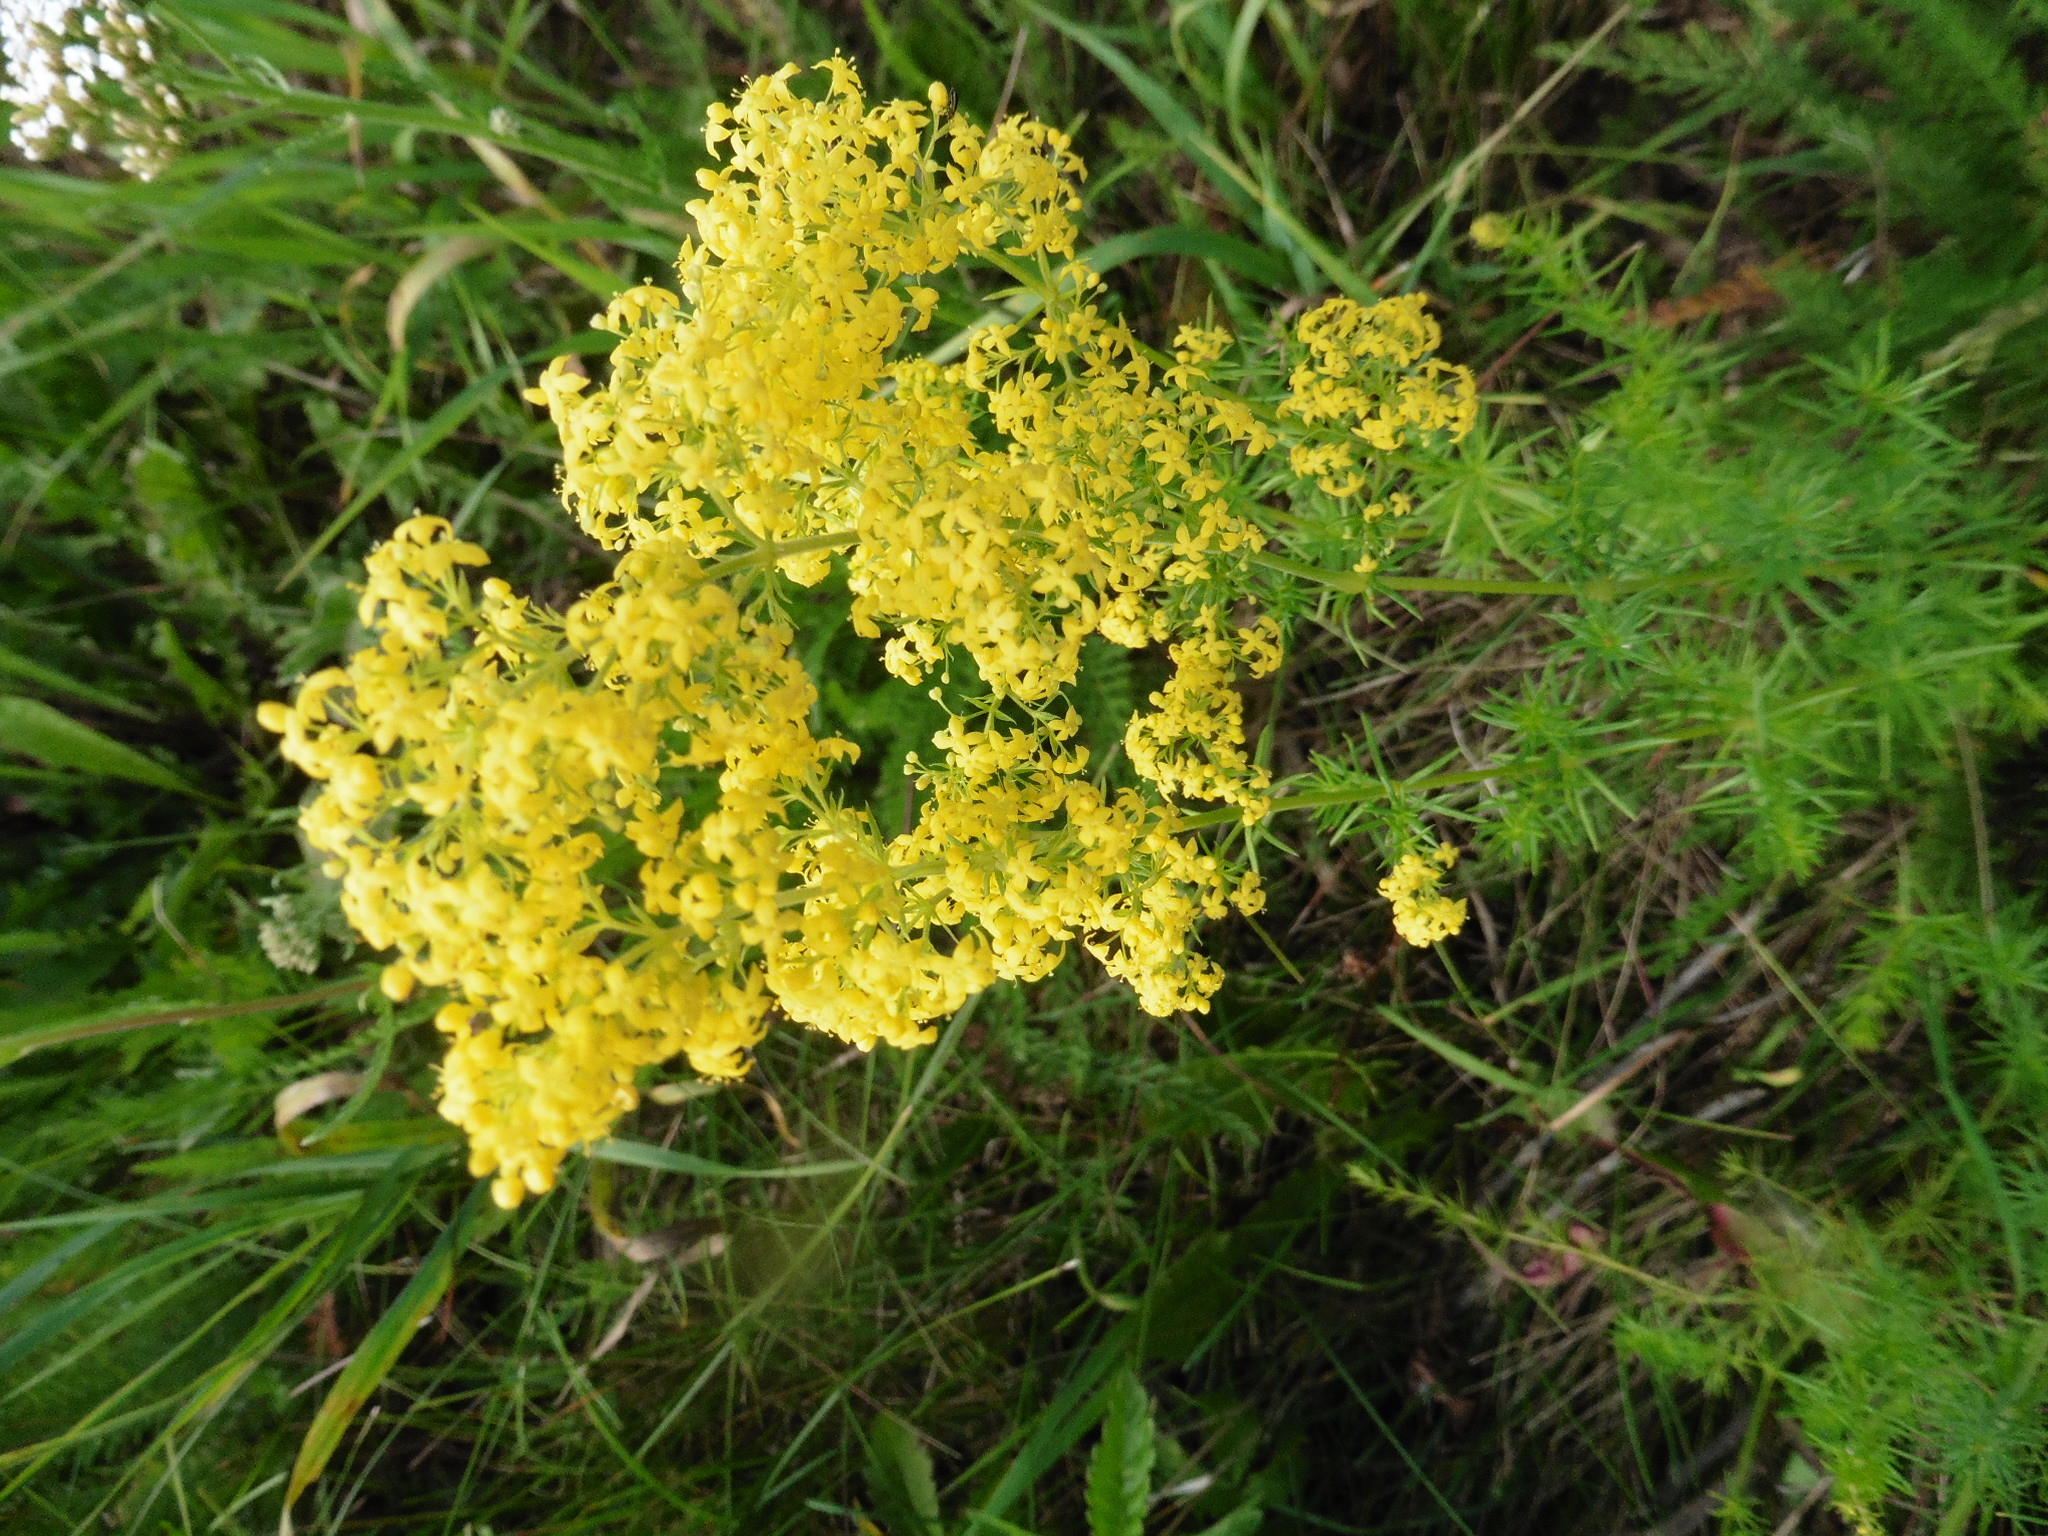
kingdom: Plantae
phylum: Tracheophyta
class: Magnoliopsida
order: Gentianales
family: Rubiaceae
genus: Galium
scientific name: Galium verum
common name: Lady's bedstraw
